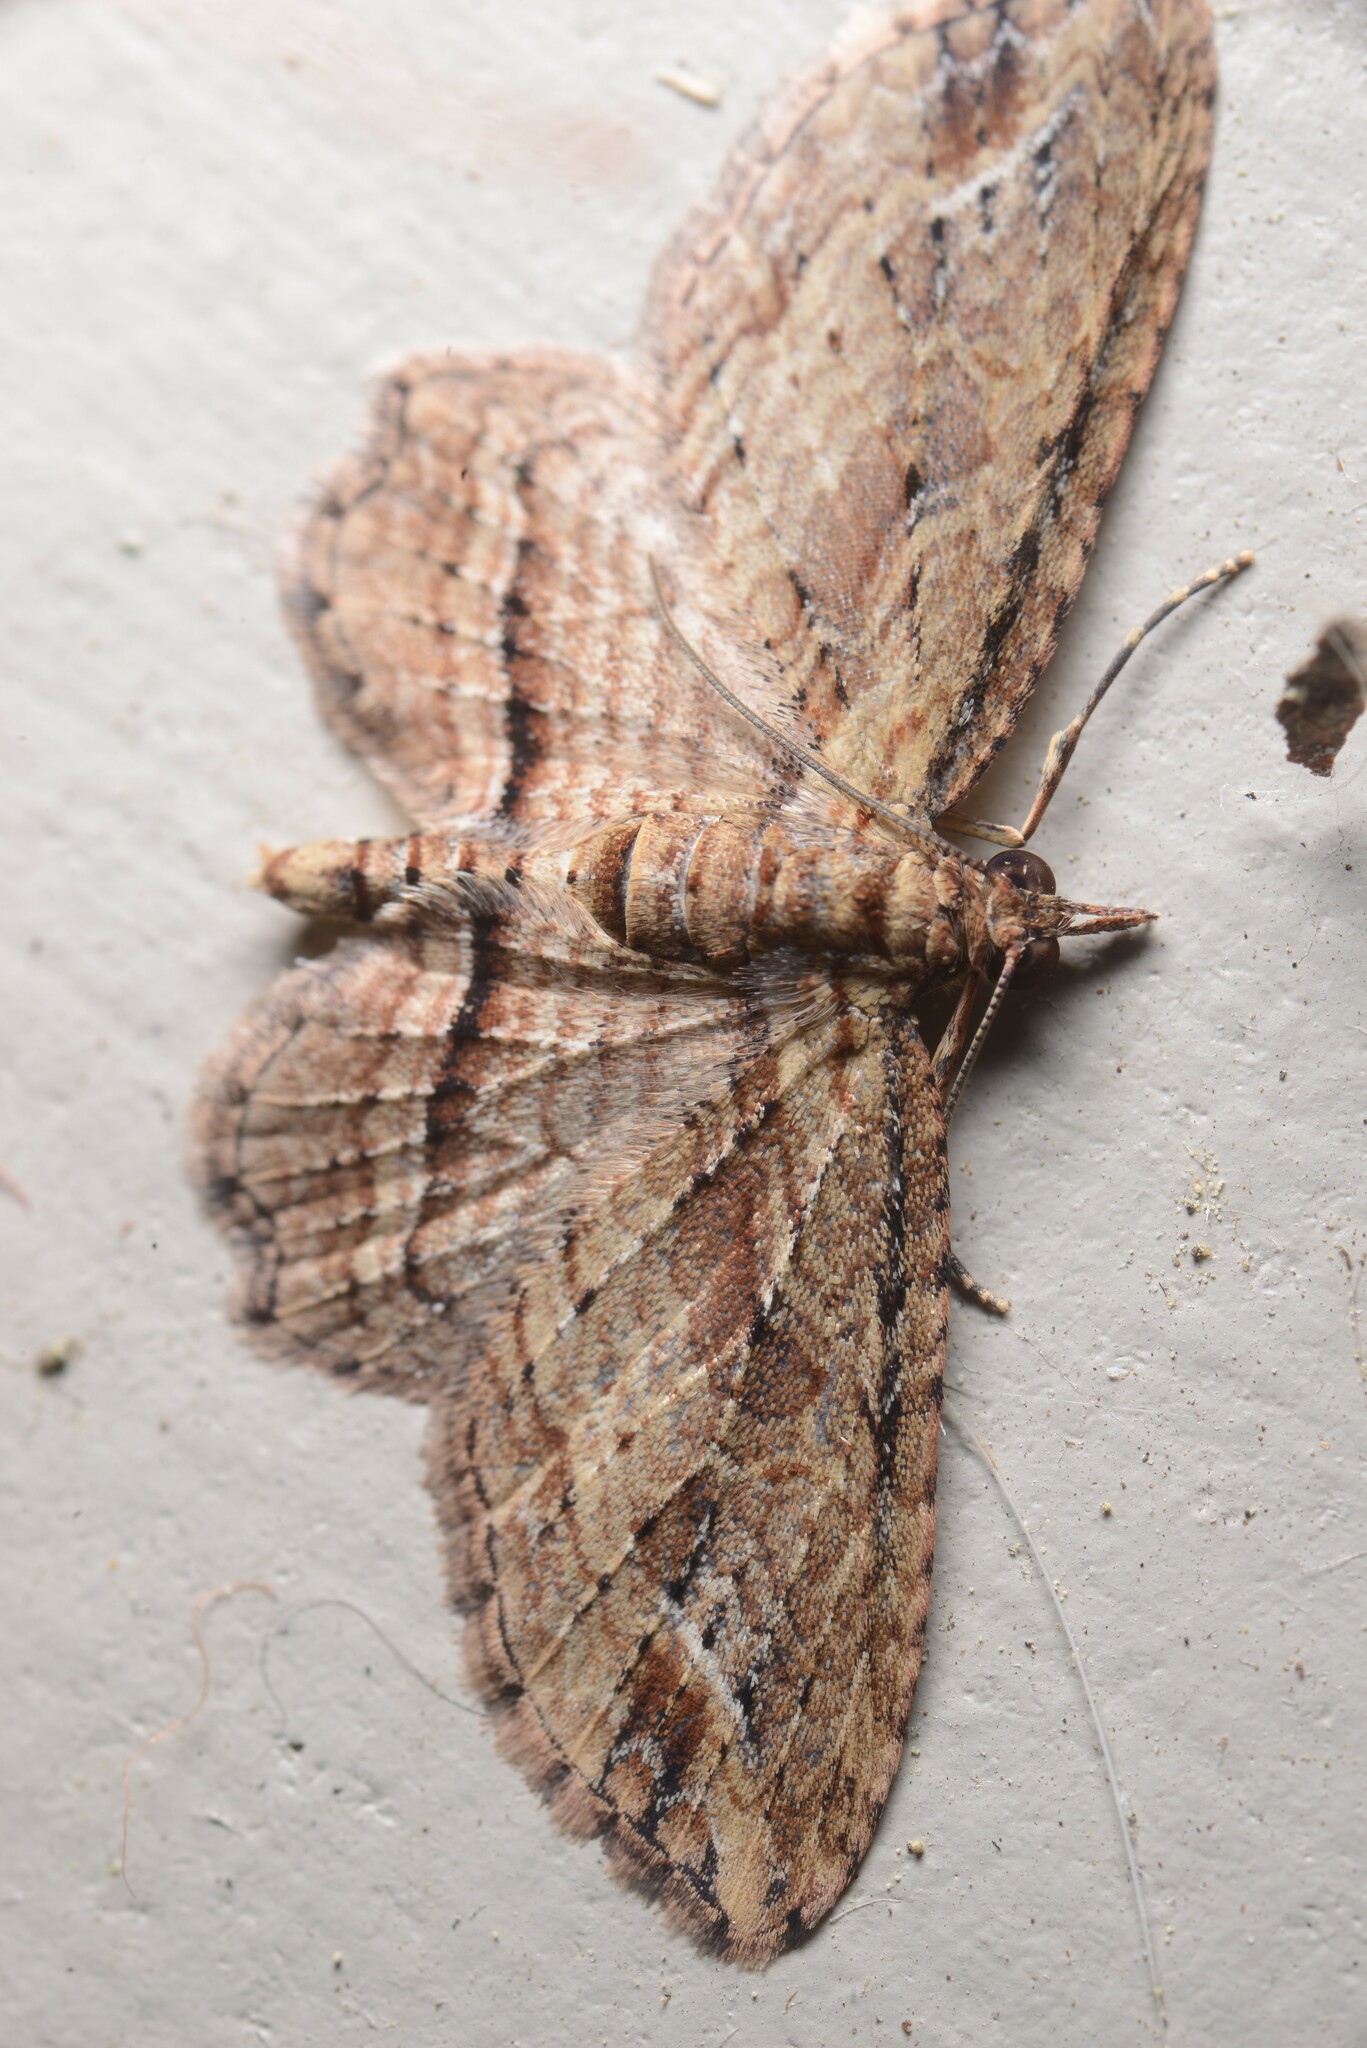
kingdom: Animalia
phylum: Arthropoda
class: Insecta
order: Lepidoptera
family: Geometridae
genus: Chloroclystis
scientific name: Chloroclystis filata
